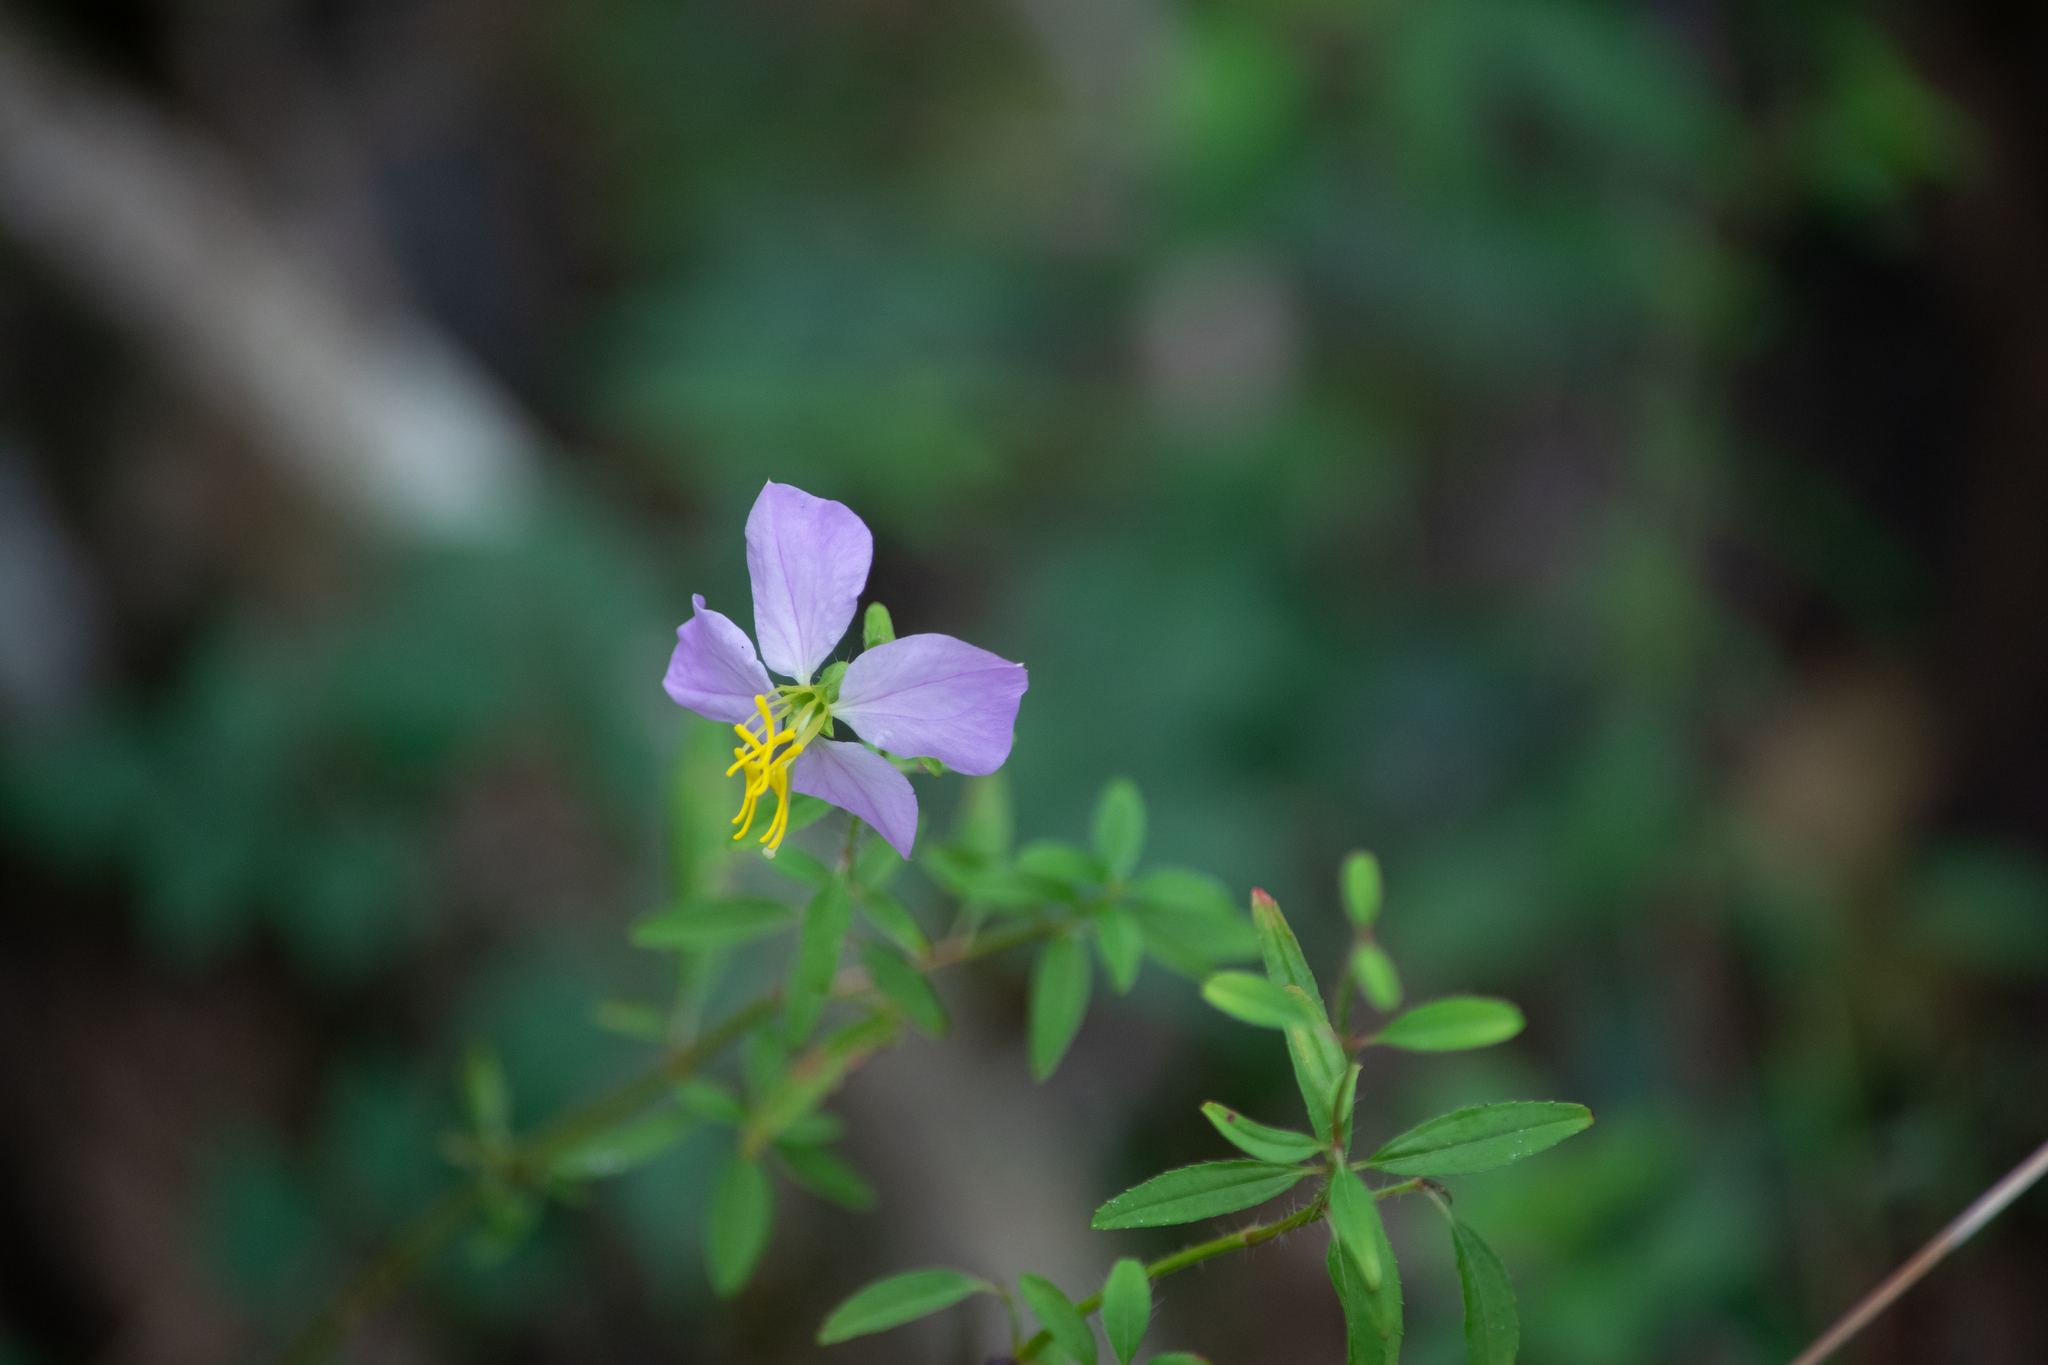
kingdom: Plantae
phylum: Tracheophyta
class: Magnoliopsida
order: Myrtales
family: Melastomataceae
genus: Rhexia
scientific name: Rhexia mariana
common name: Dull meadow-pitcher
